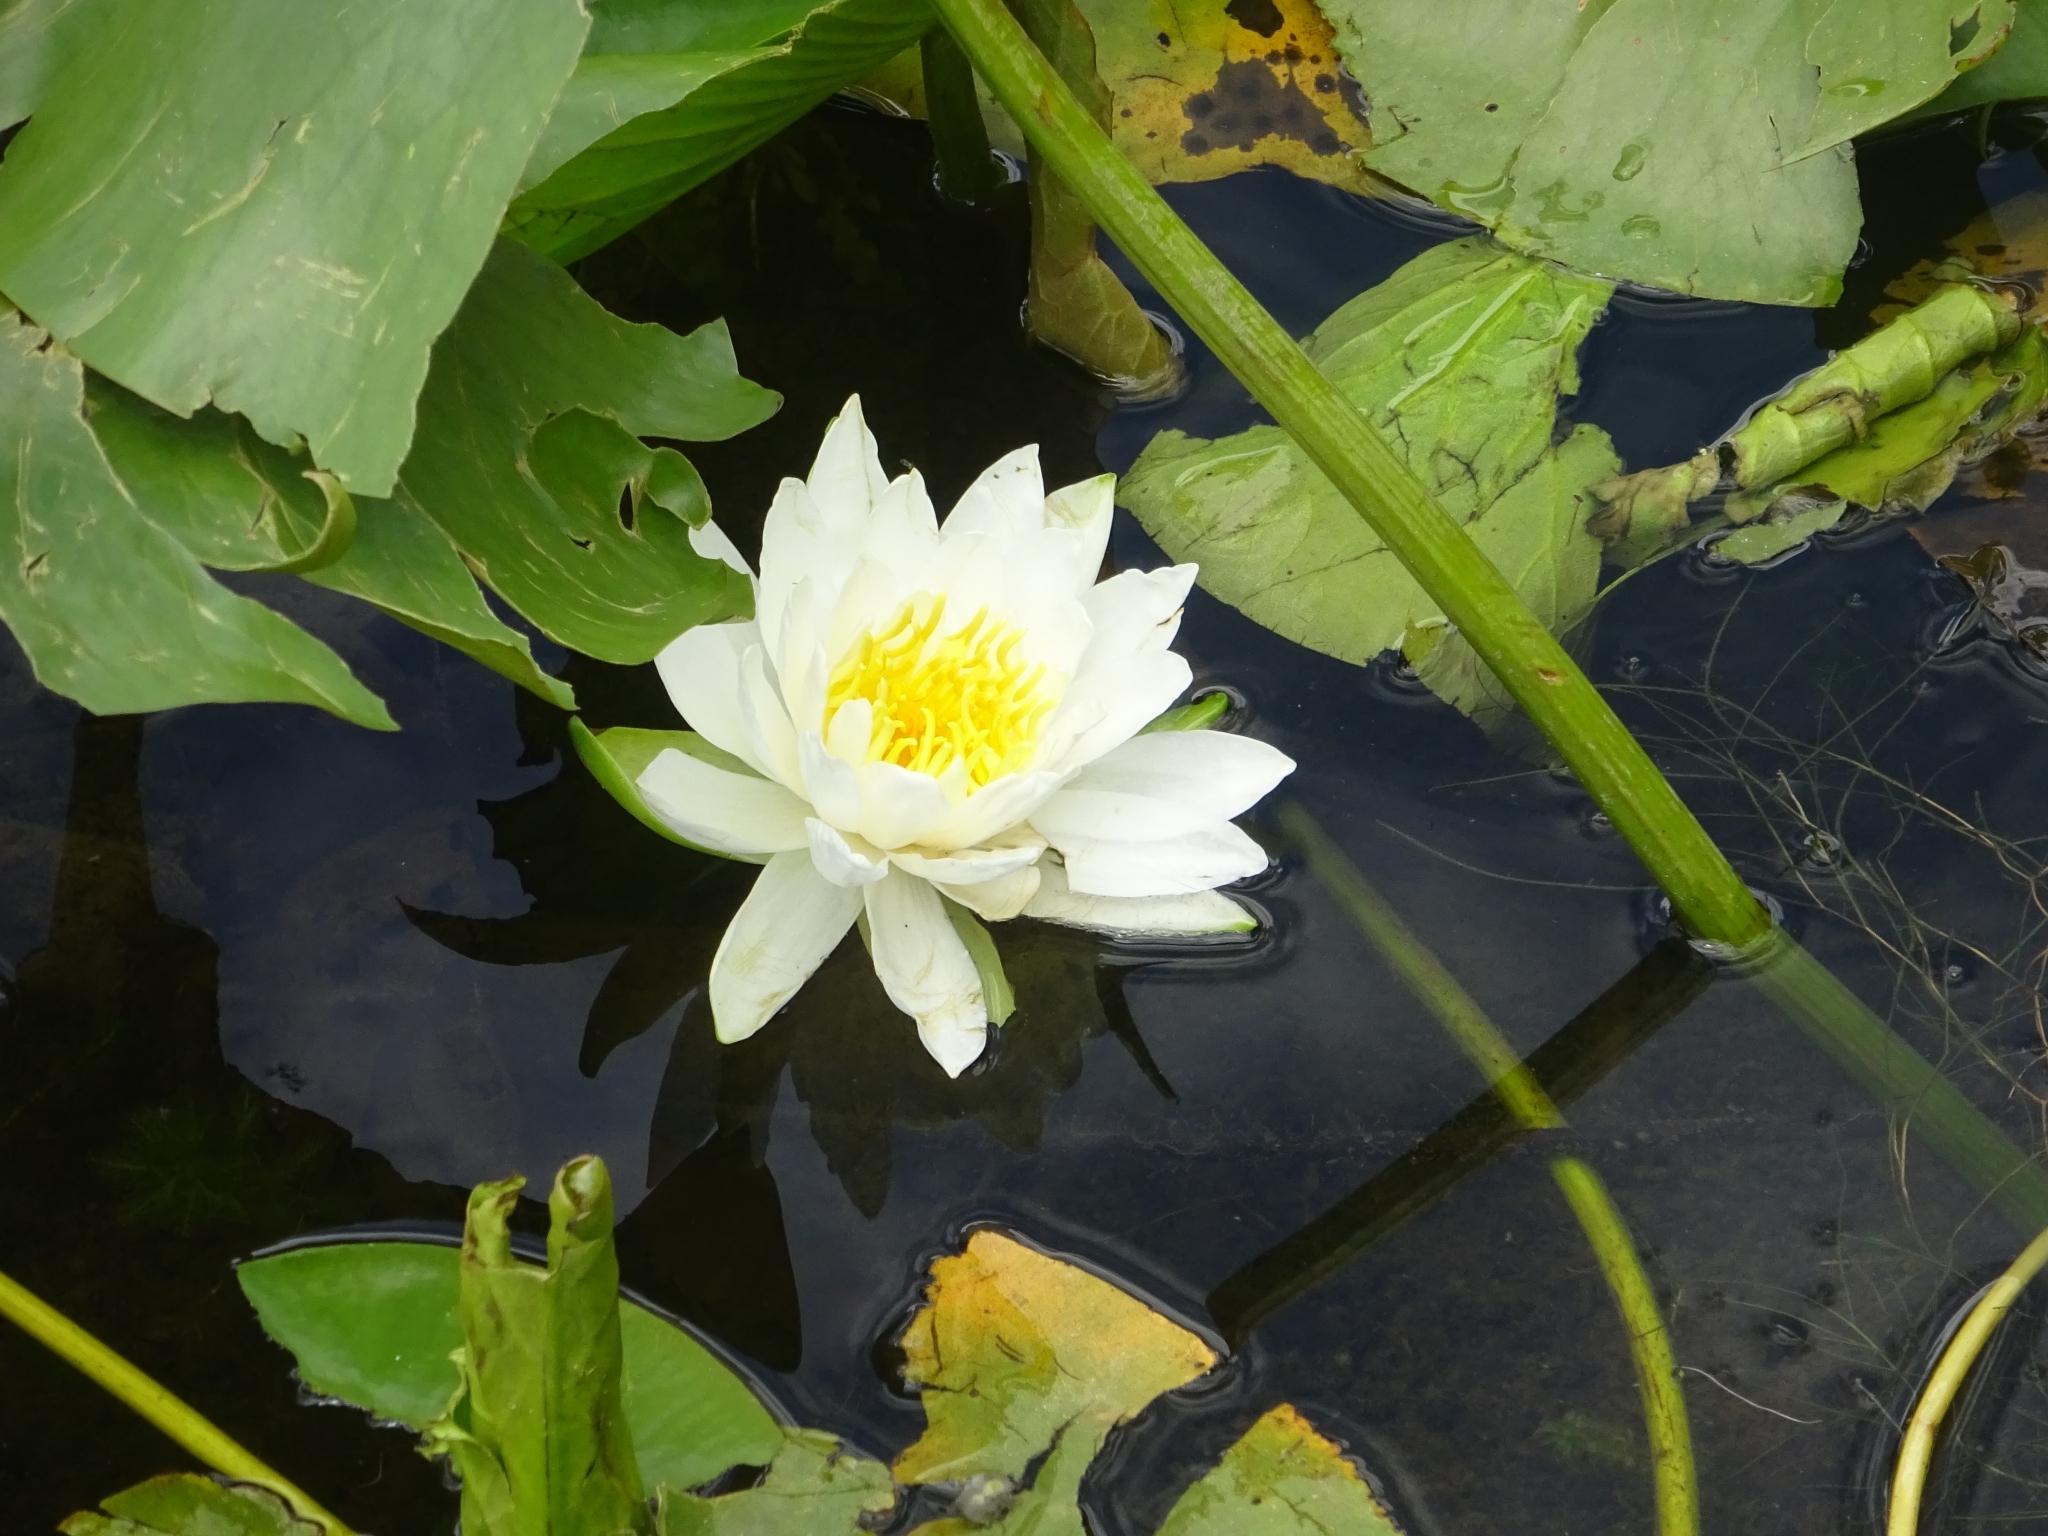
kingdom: Plantae
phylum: Tracheophyta
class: Magnoliopsida
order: Nymphaeales
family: Nymphaeaceae
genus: Nymphaea
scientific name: Nymphaea odorata
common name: Fragrant water-lily
